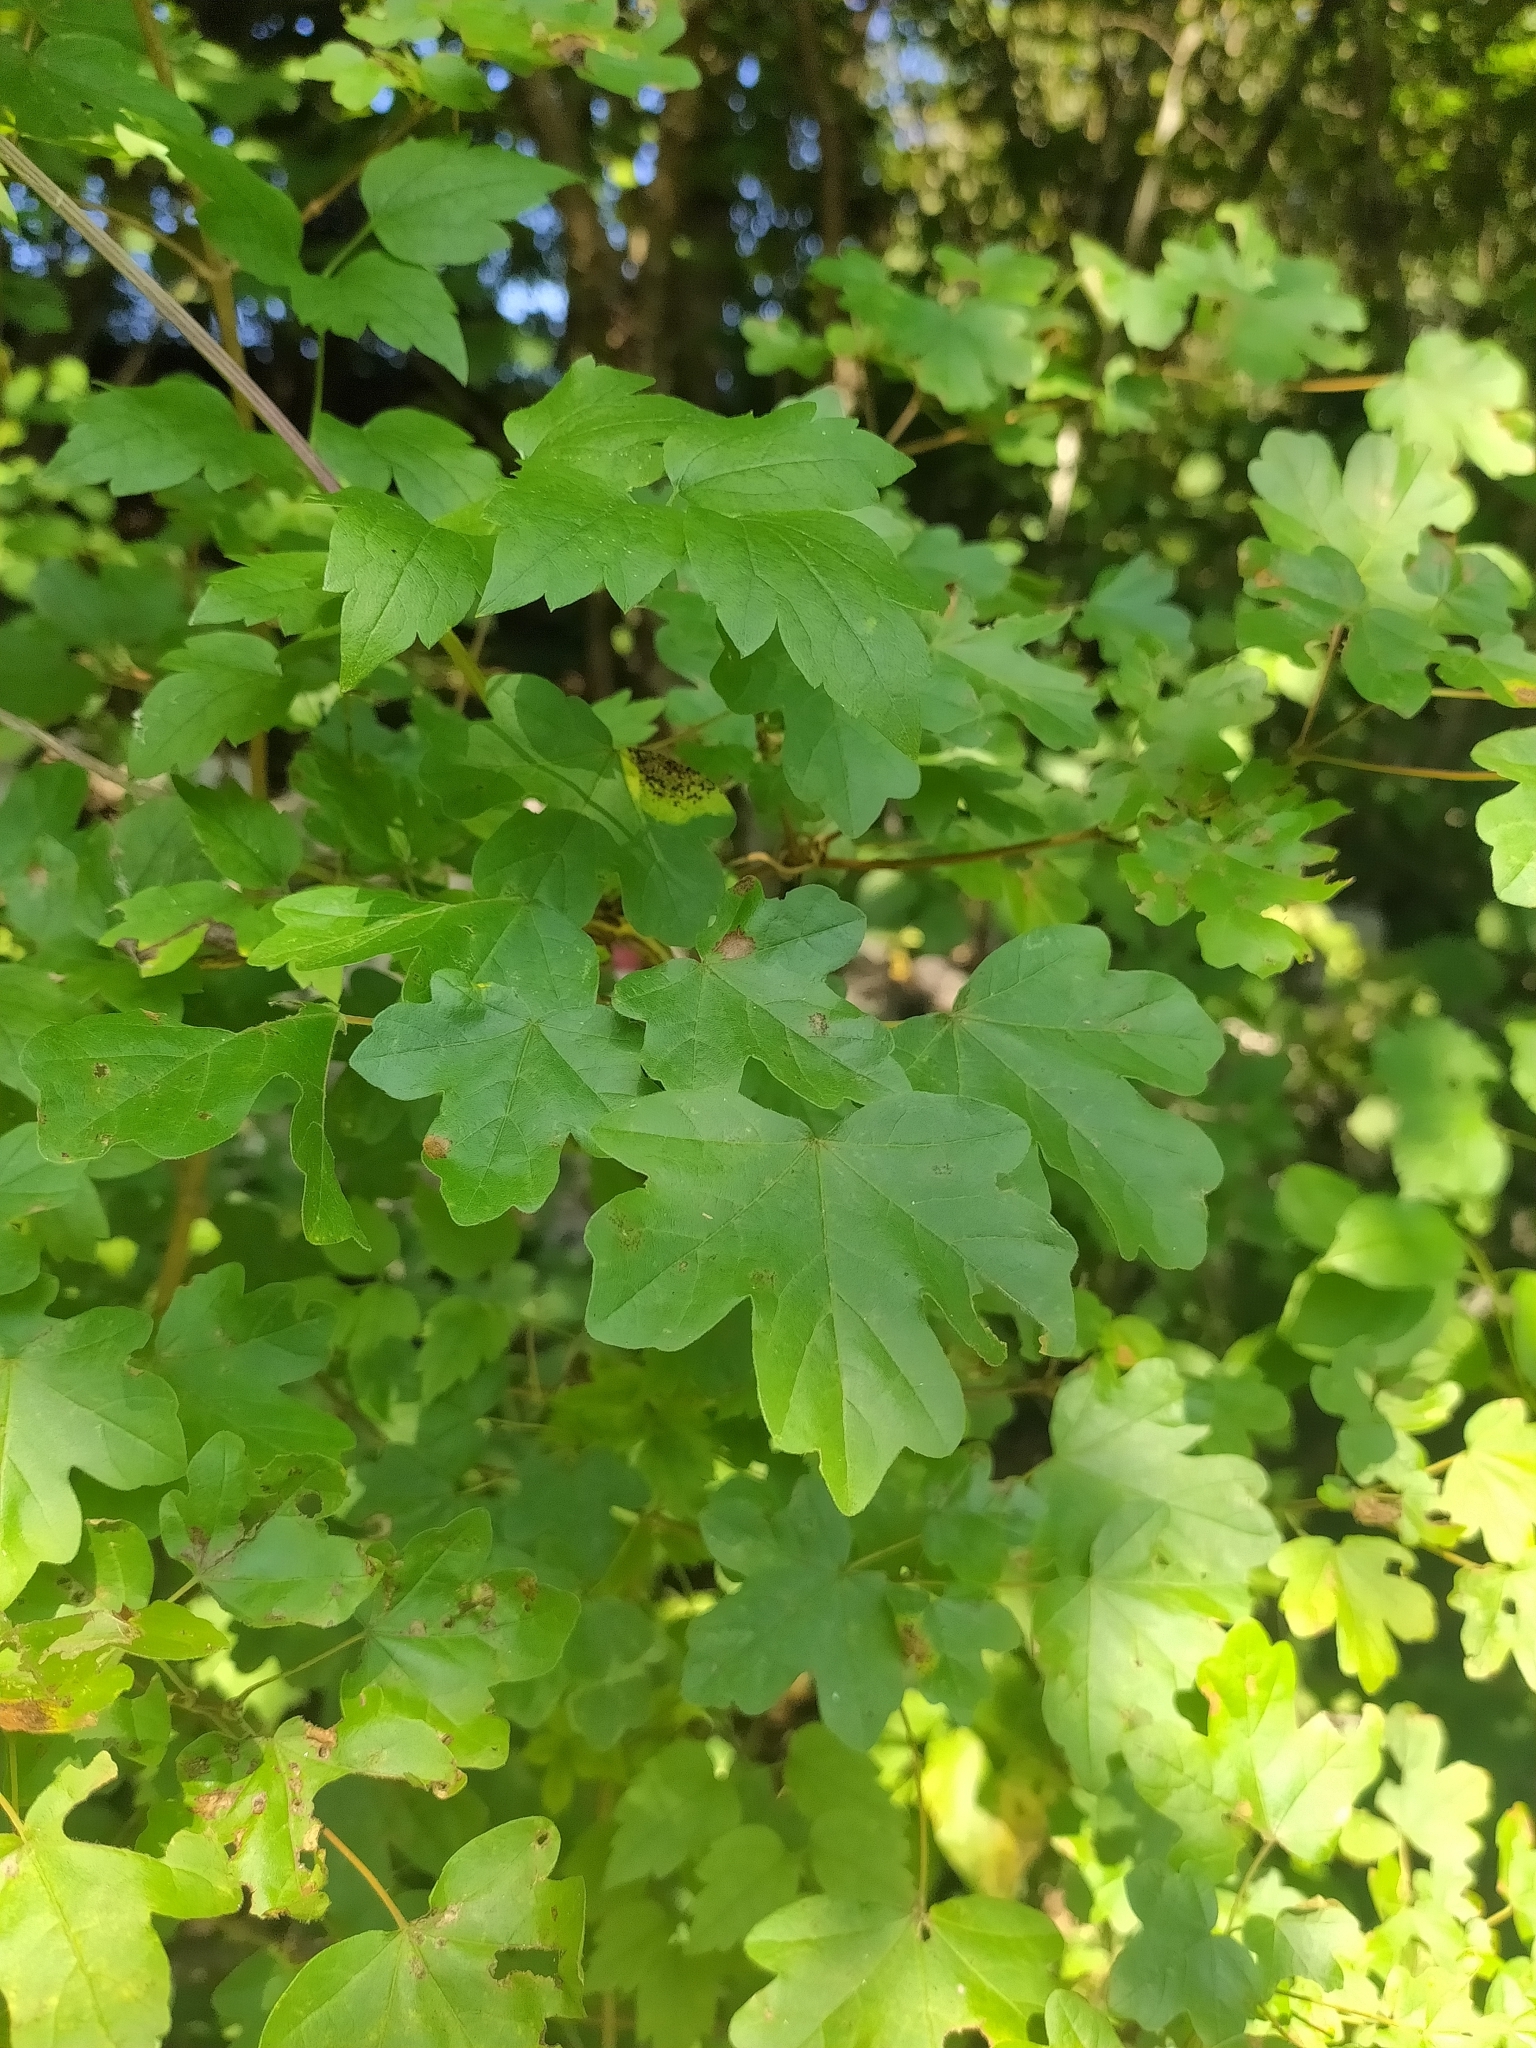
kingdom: Plantae
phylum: Tracheophyta
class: Magnoliopsida
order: Sapindales
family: Sapindaceae
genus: Acer
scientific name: Acer campestre
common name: Field maple
